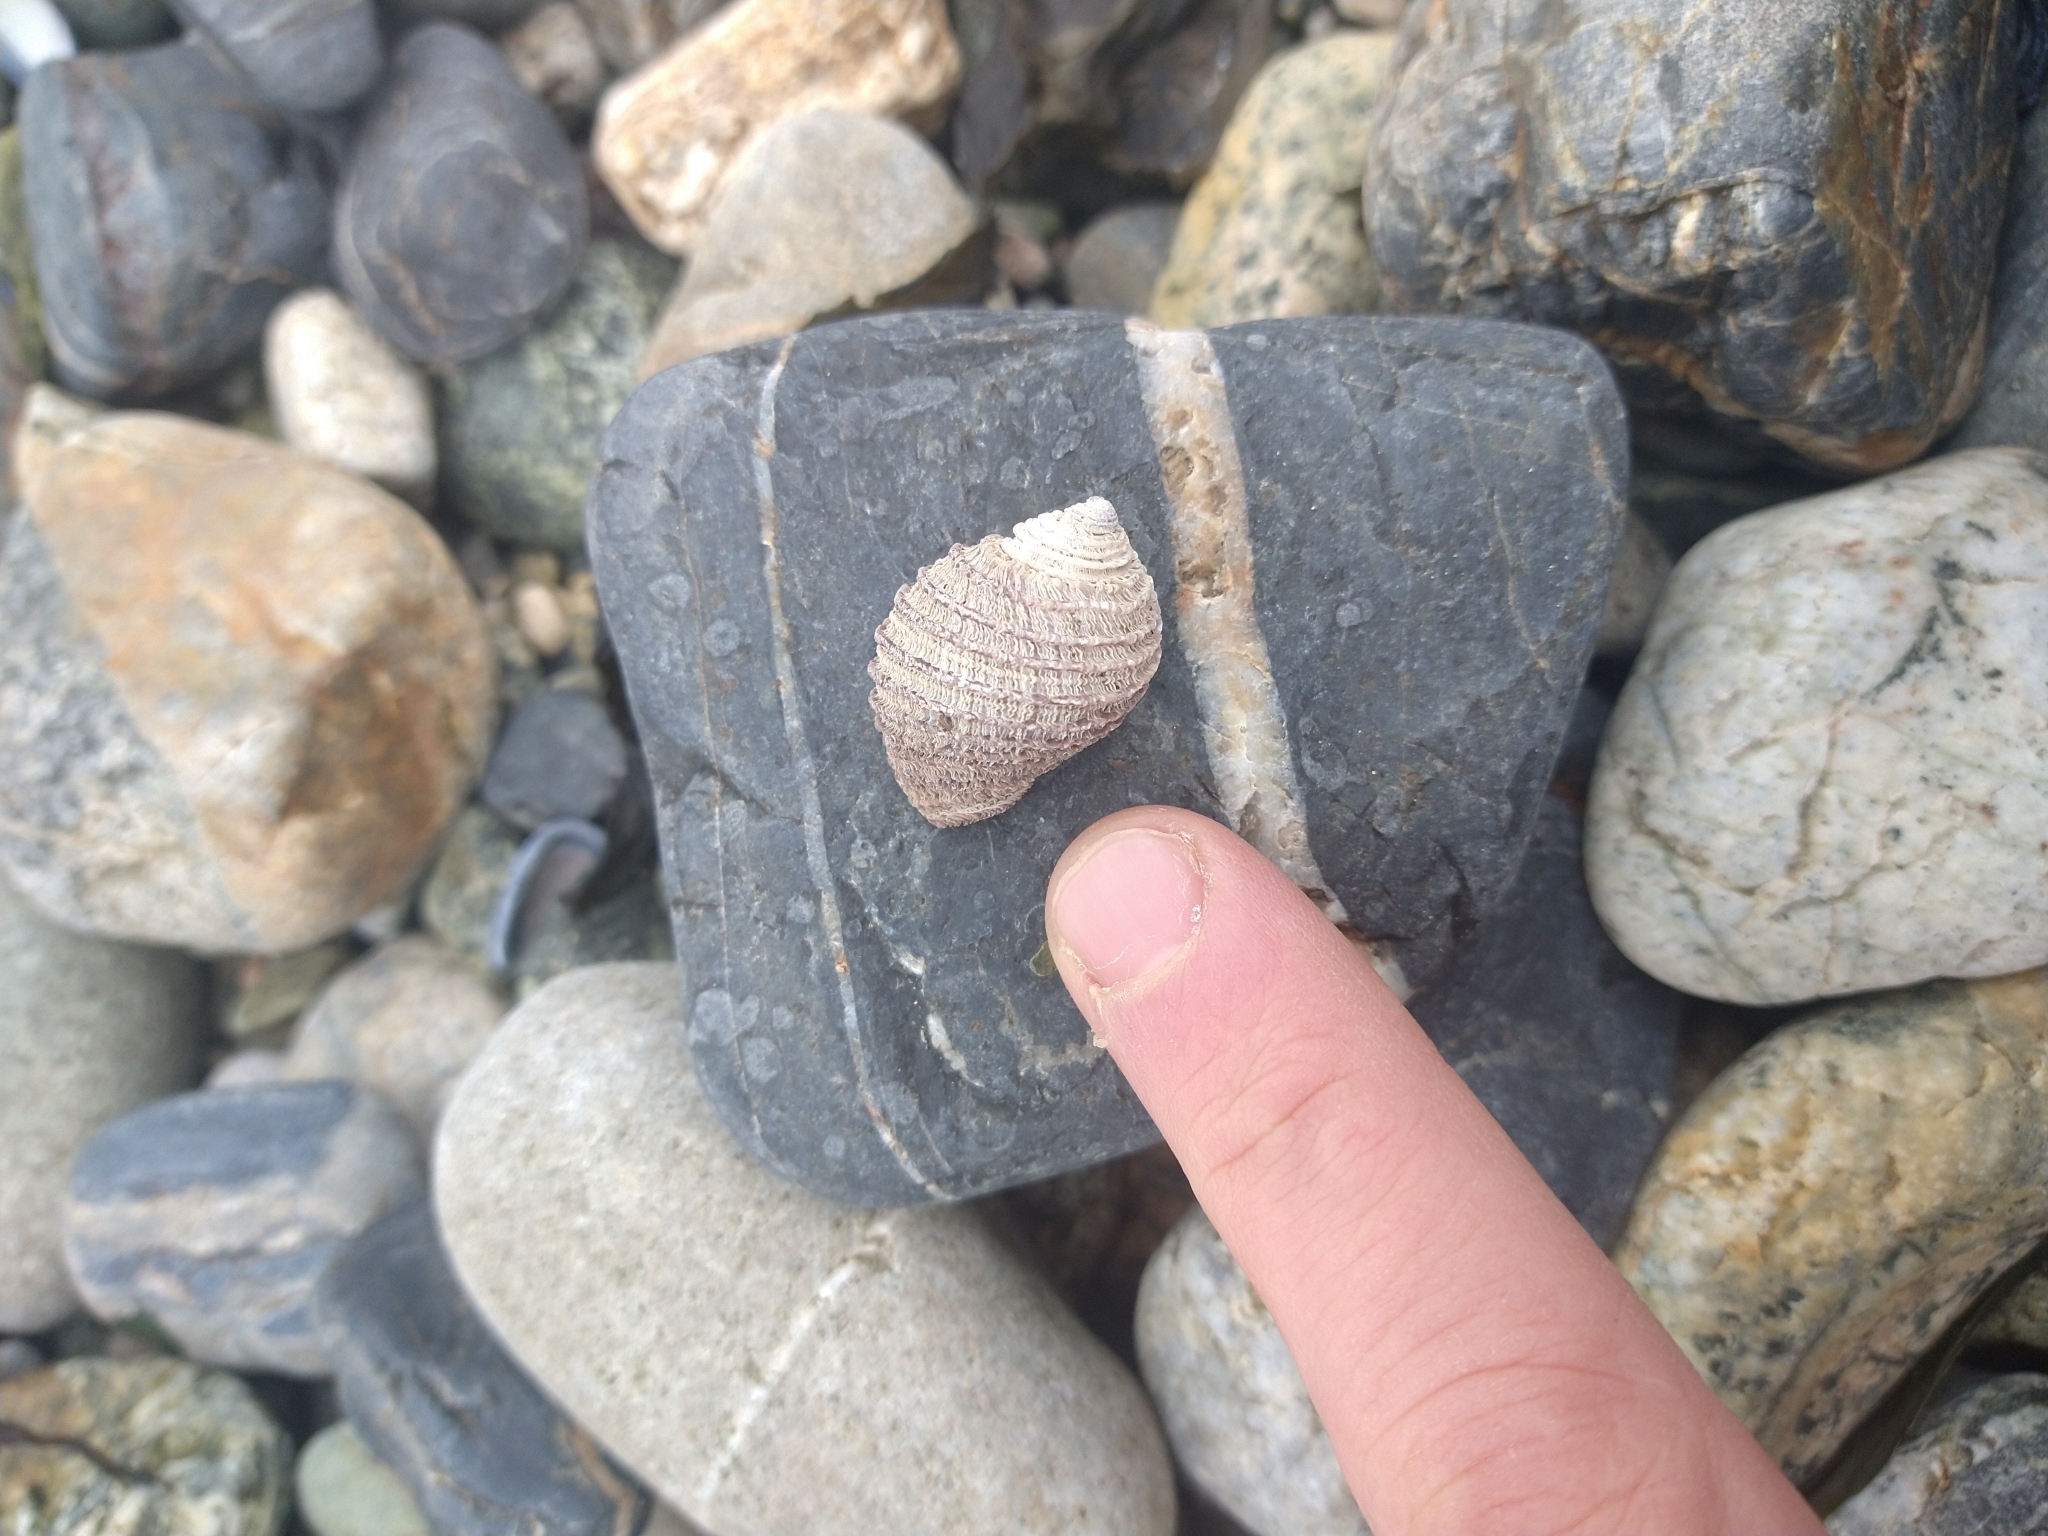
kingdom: Animalia
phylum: Mollusca
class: Gastropoda
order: Neogastropoda
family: Muricidae
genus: Acanthina
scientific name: Acanthina monodon
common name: One-toothed thais
